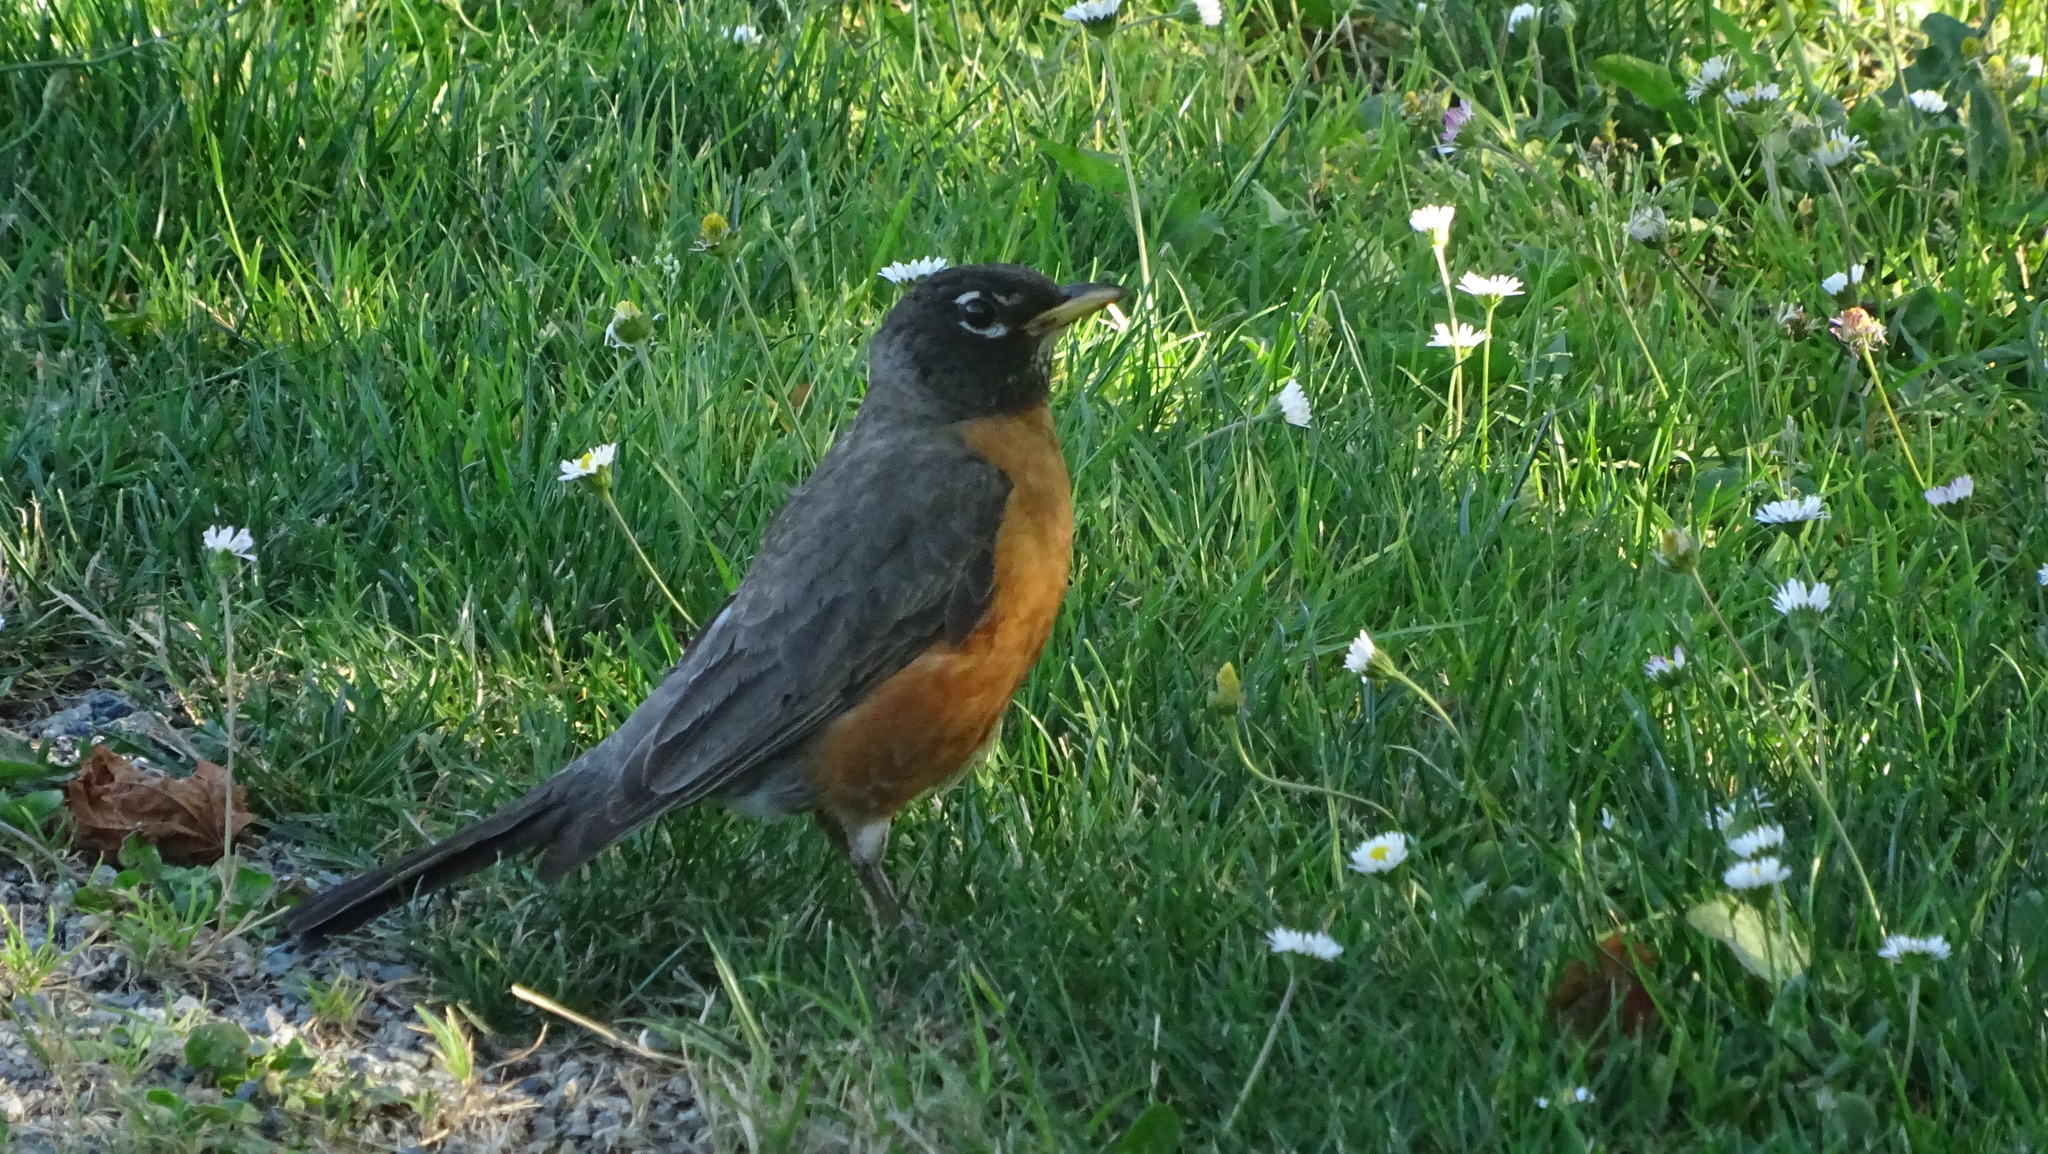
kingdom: Animalia
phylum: Chordata
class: Aves
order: Passeriformes
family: Turdidae
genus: Turdus
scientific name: Turdus migratorius
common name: American robin
